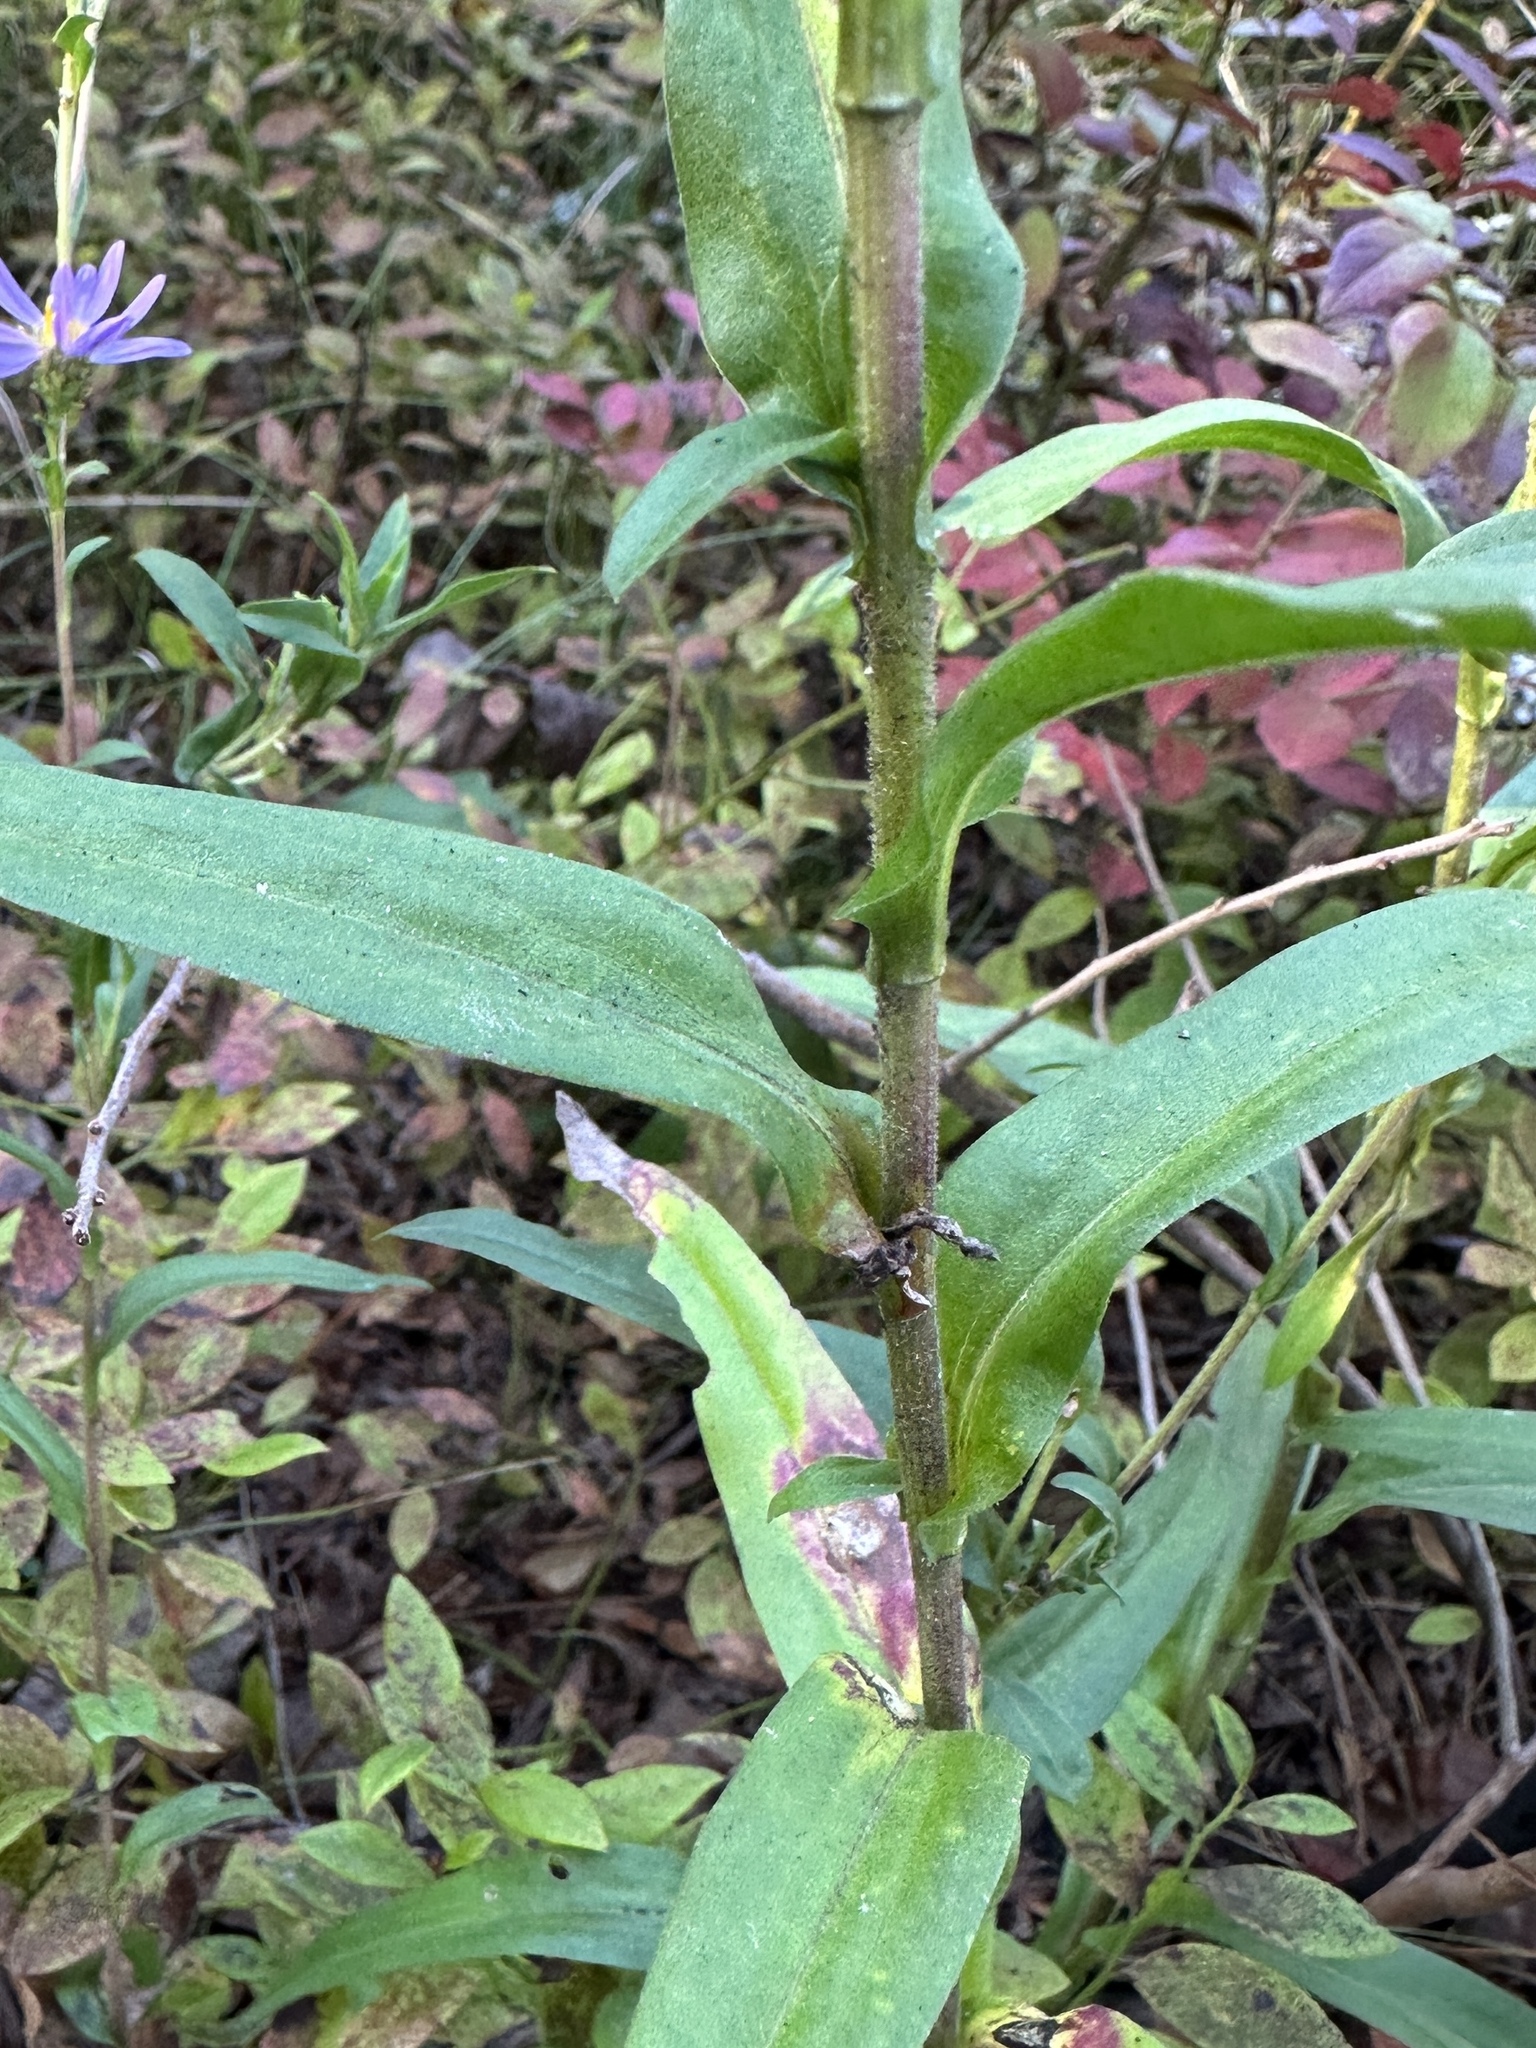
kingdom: Plantae
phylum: Tracheophyta
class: Magnoliopsida
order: Asterales
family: Asteraceae
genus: Eurybia
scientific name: Eurybia spectabilis
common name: Low showy aster
